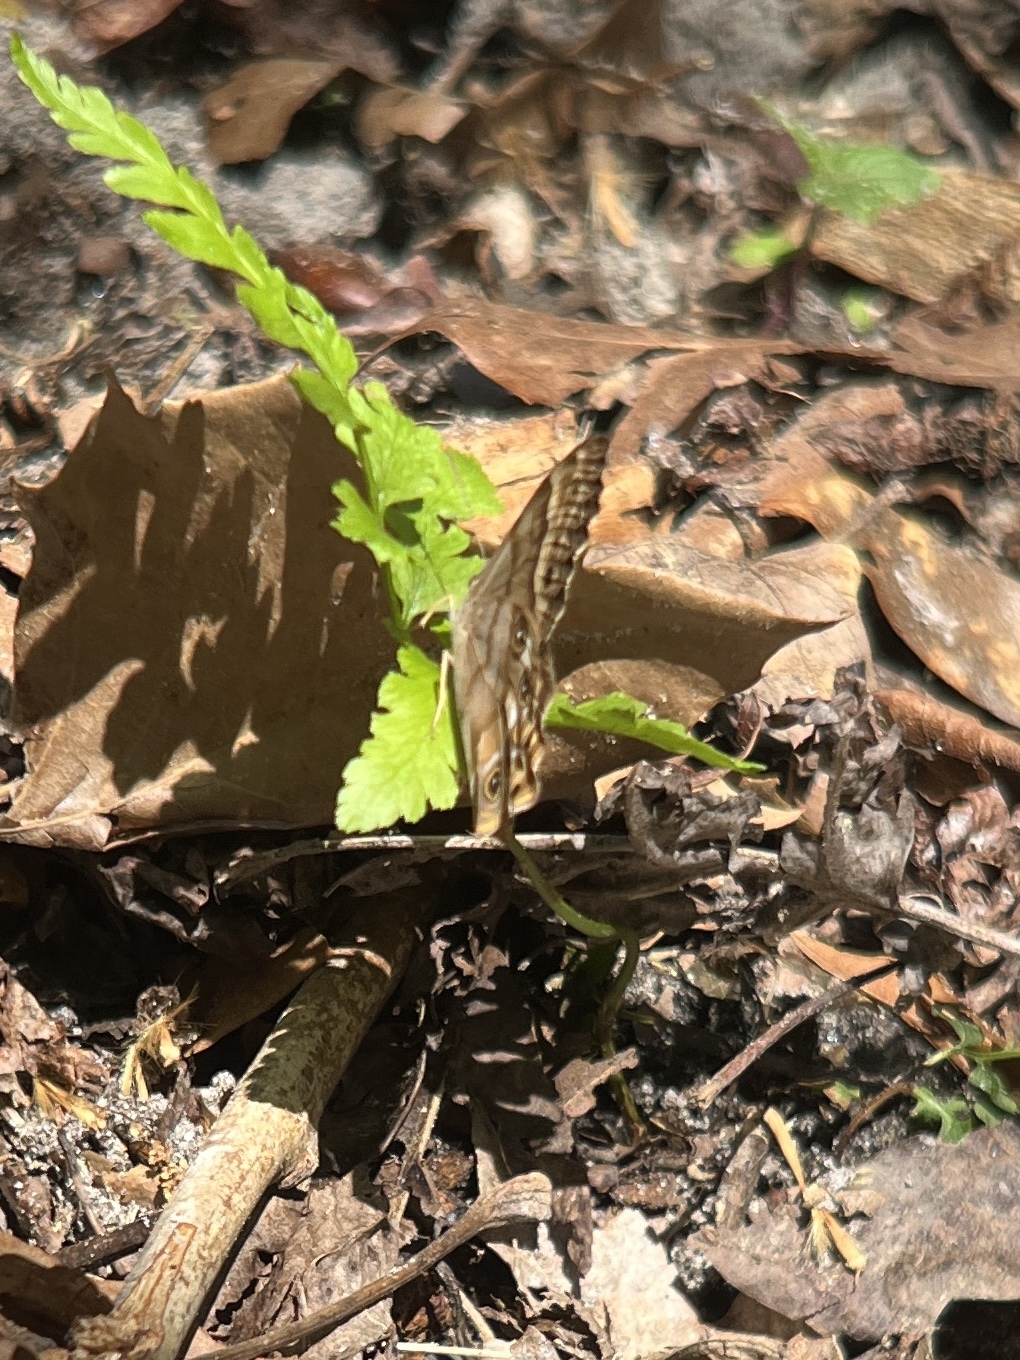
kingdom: Animalia
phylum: Arthropoda
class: Insecta
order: Lepidoptera
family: Nymphalidae
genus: Enodia
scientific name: Enodia portlandia
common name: Southern pearly-eye
